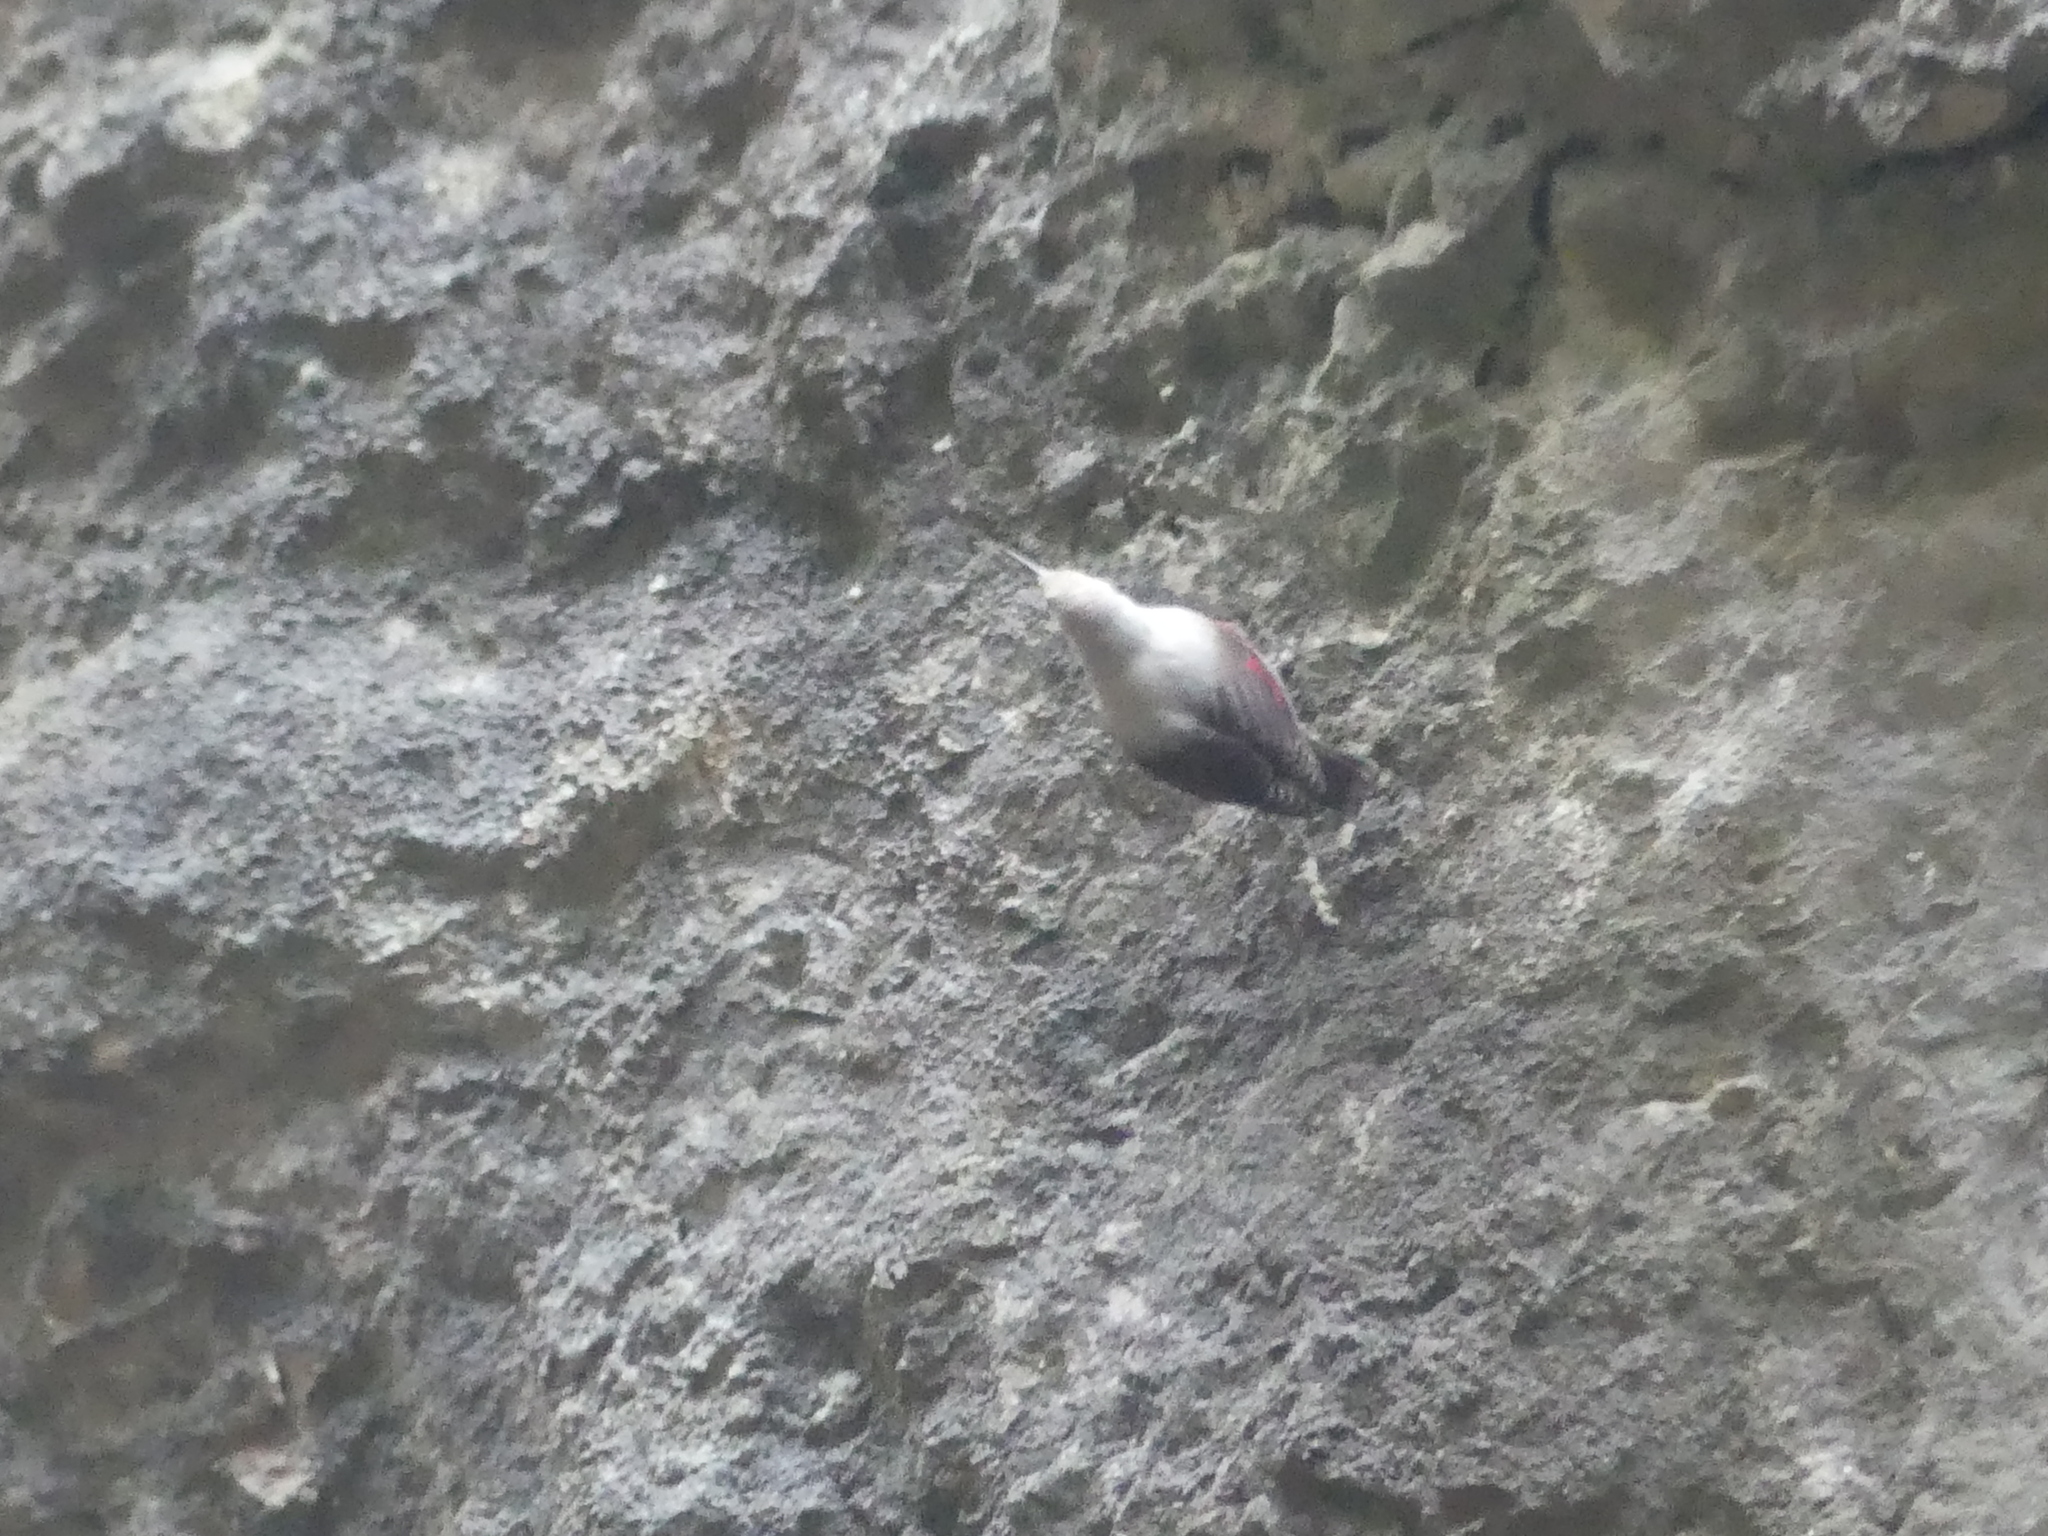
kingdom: Animalia
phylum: Chordata
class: Aves
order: Passeriformes
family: Tichodromidae
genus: Tichodroma
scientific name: Tichodroma muraria
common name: Wallcreeper
